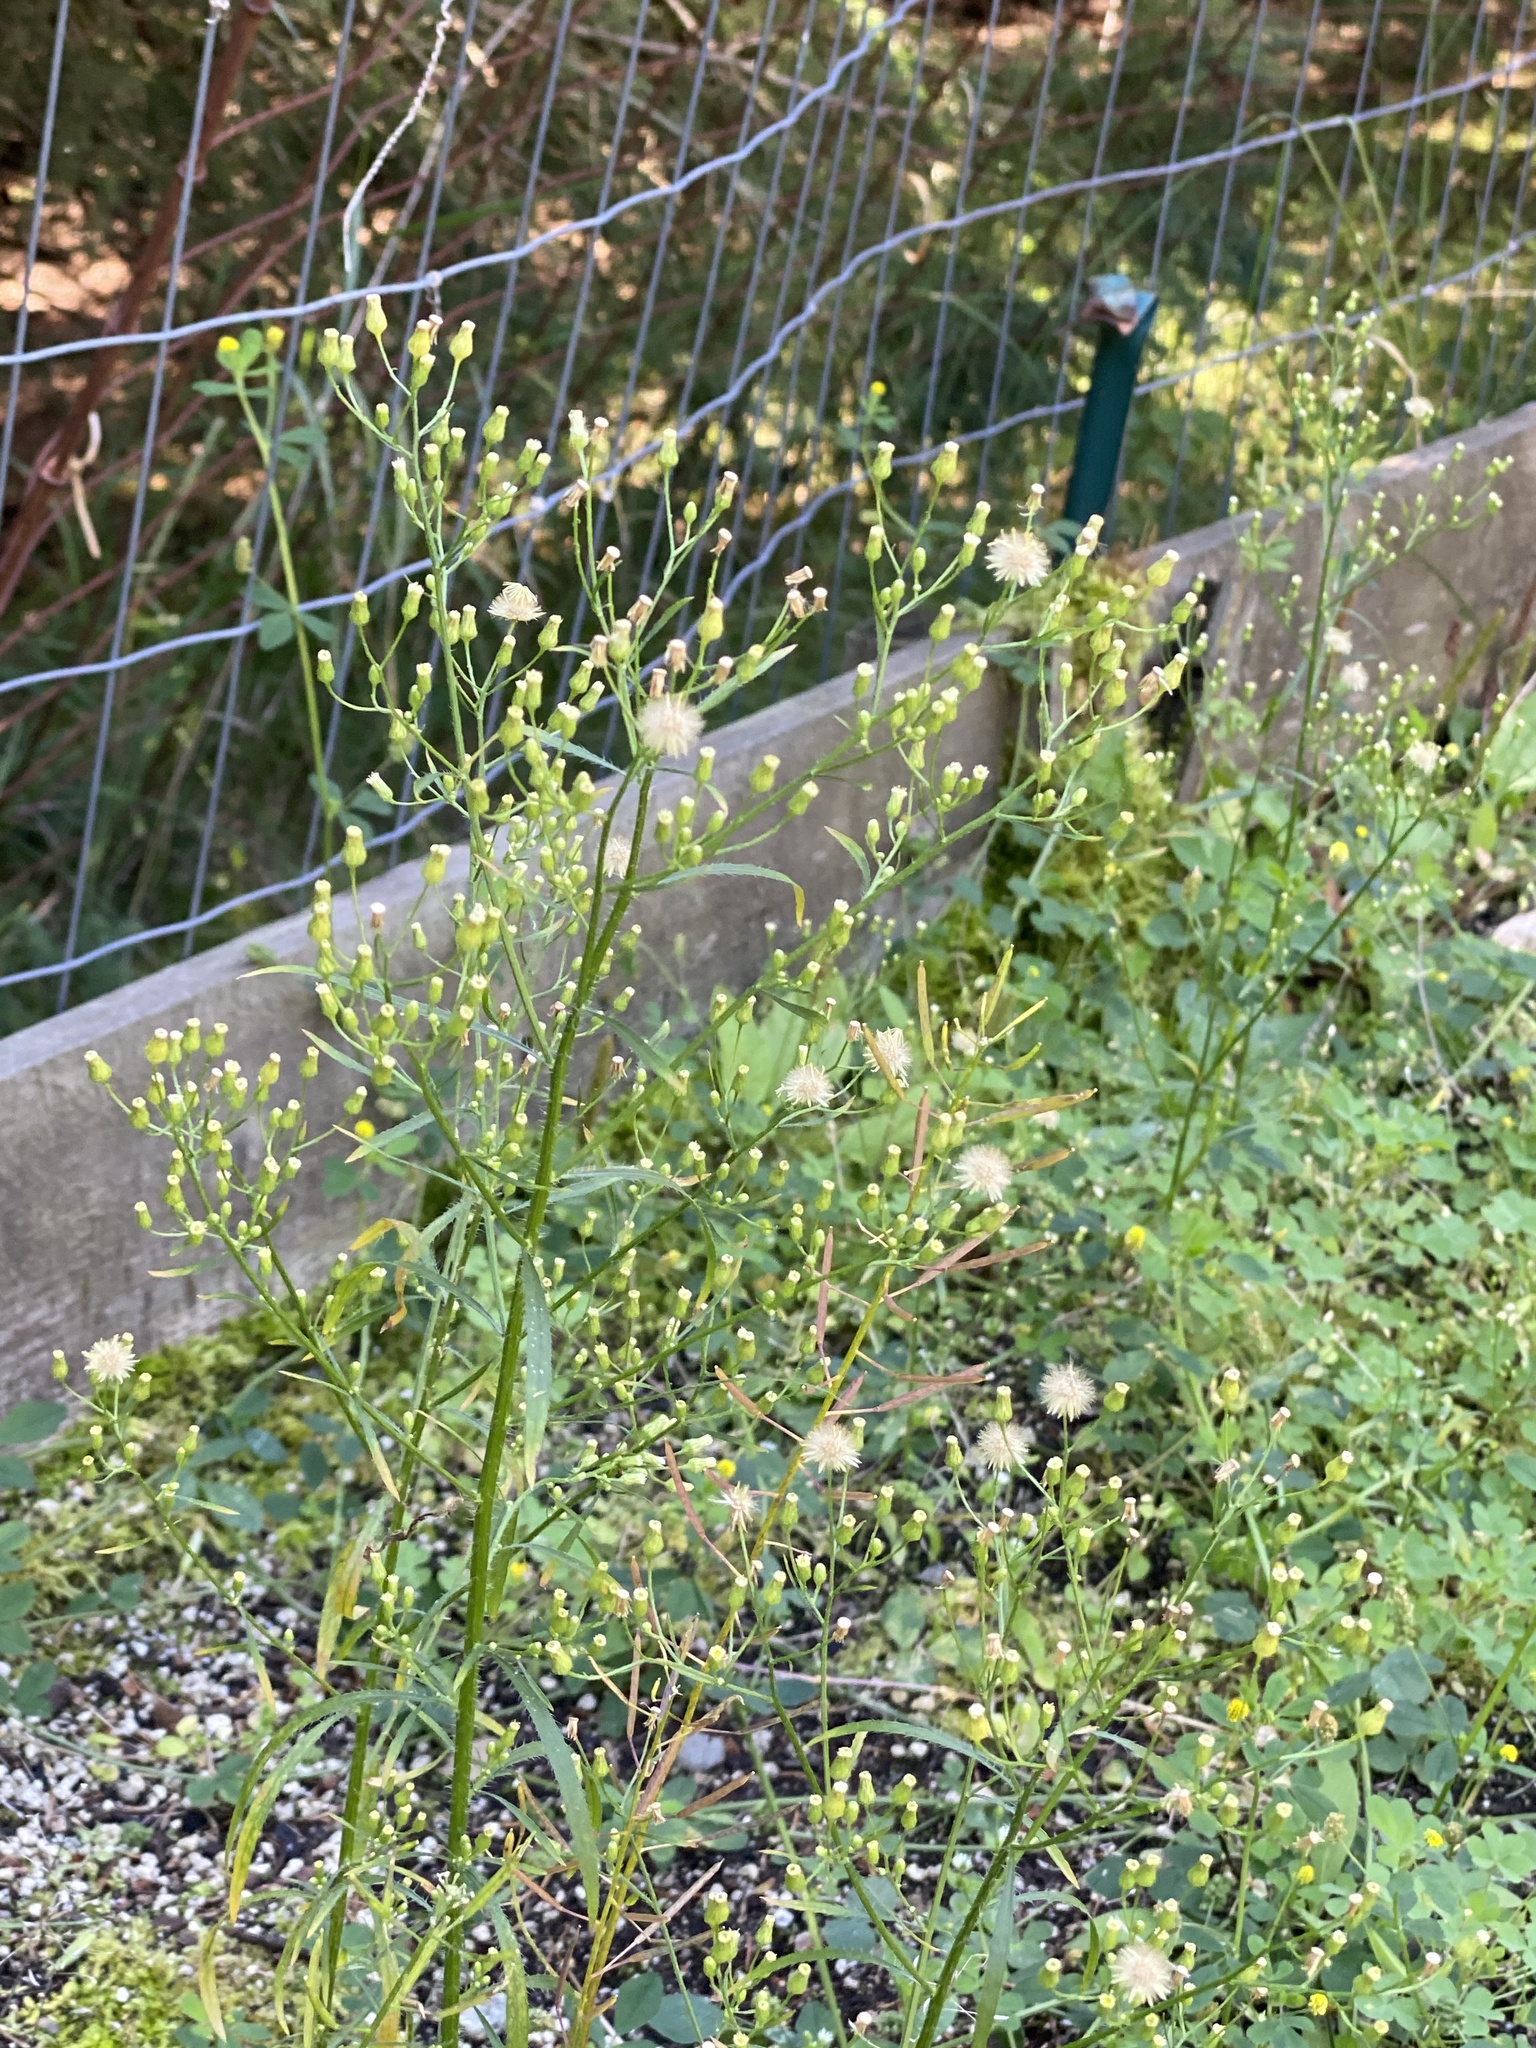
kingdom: Plantae
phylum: Tracheophyta
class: Magnoliopsida
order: Asterales
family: Asteraceae
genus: Erigeron
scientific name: Erigeron canadensis
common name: Canadian fleabane
